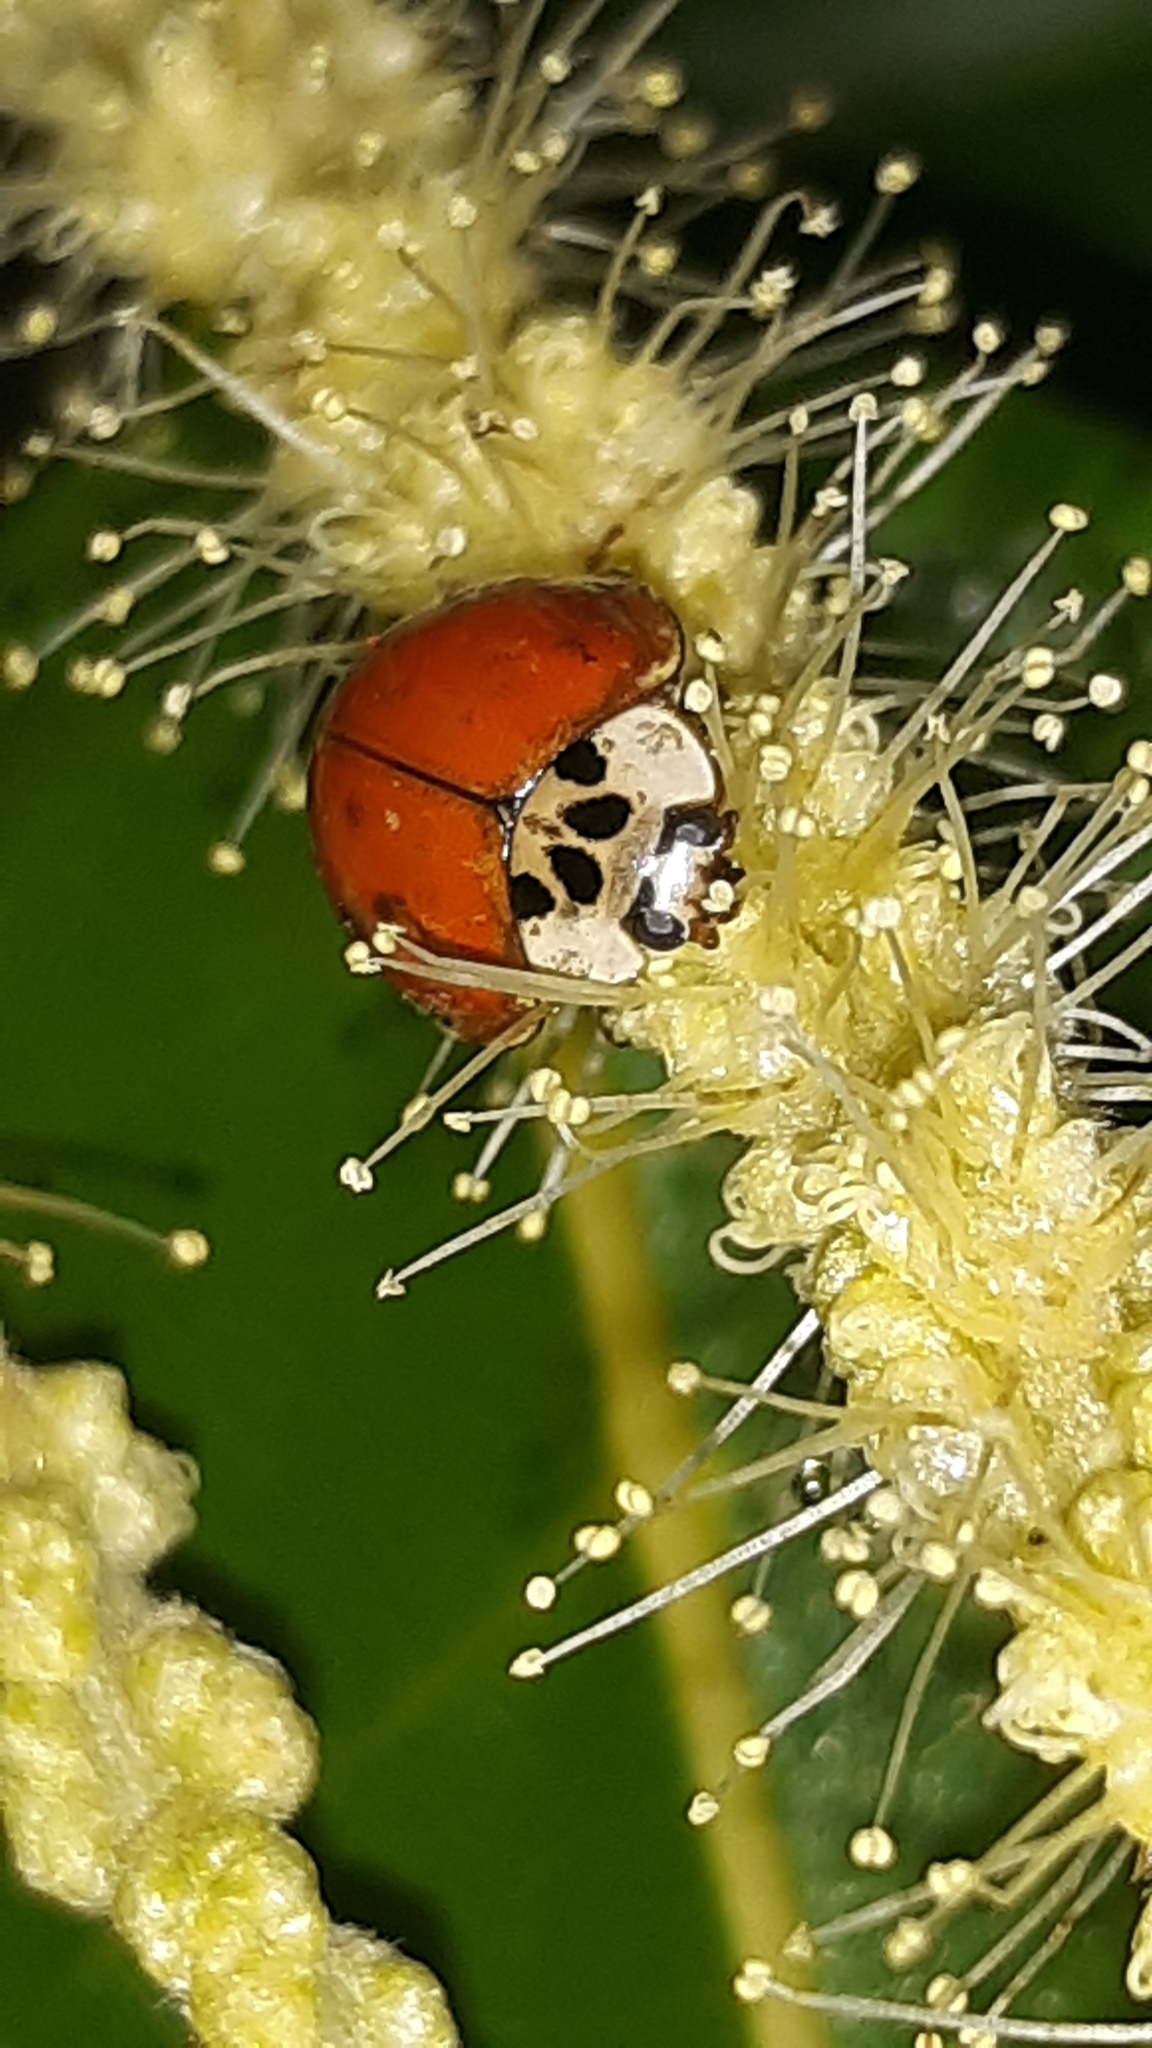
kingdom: Animalia
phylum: Arthropoda
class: Insecta
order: Coleoptera
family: Coccinellidae
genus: Harmonia
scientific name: Harmonia axyridis
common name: Harlequin ladybird
